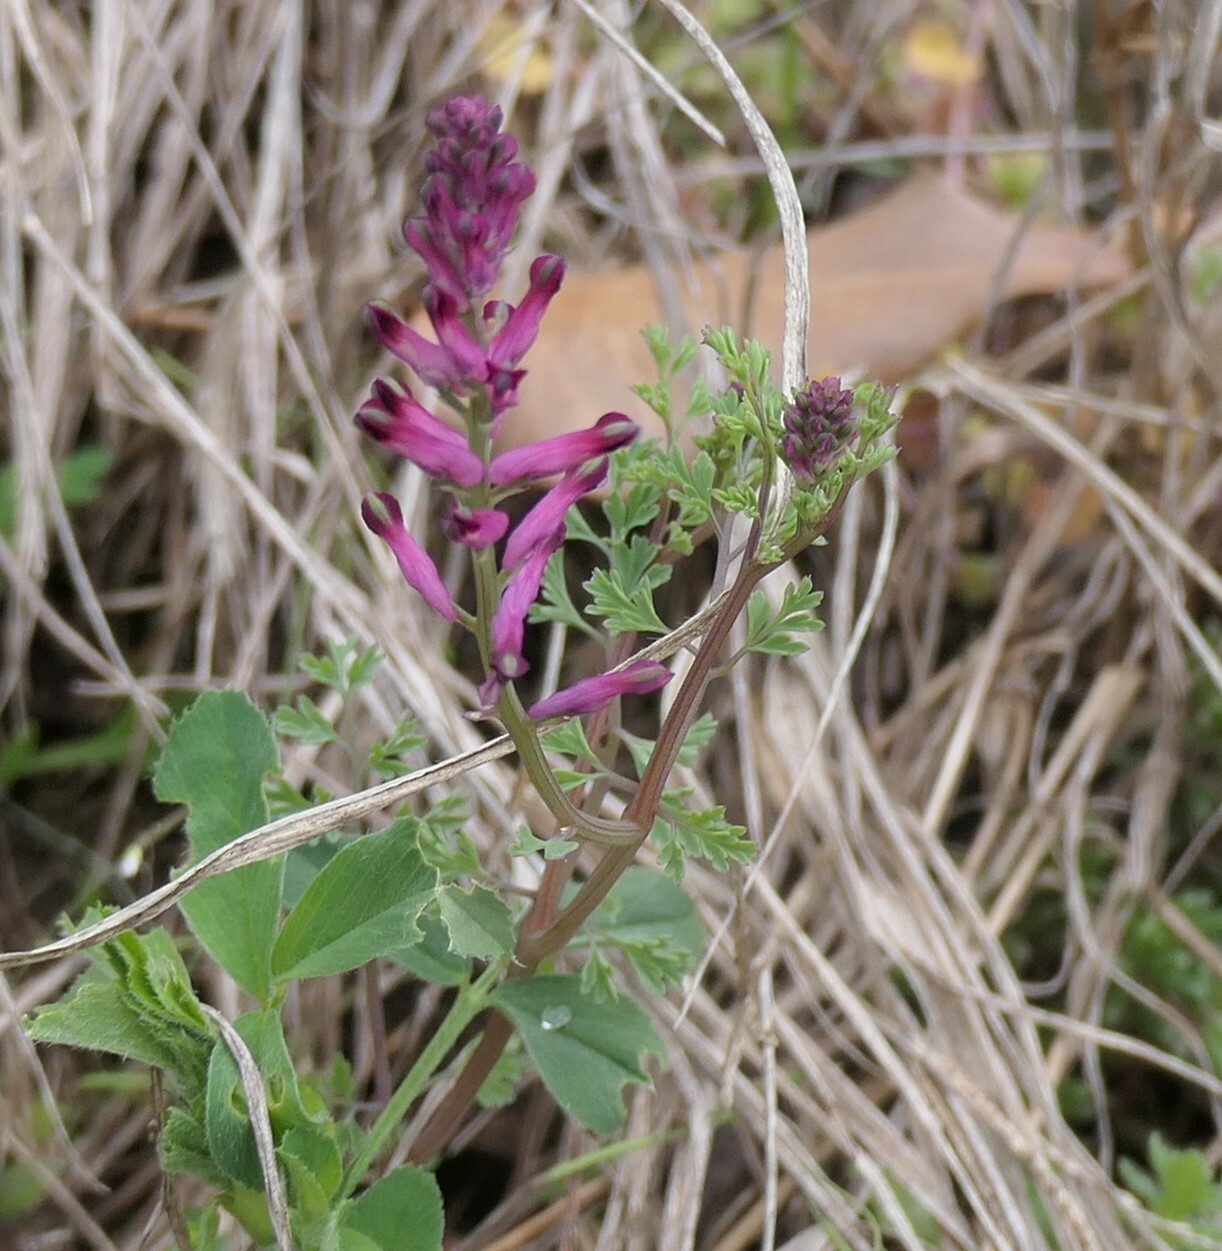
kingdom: Plantae
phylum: Tracheophyta
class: Magnoliopsida
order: Ranunculales
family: Papaveraceae
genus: Fumaria
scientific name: Fumaria officinalis
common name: Common fumitory
